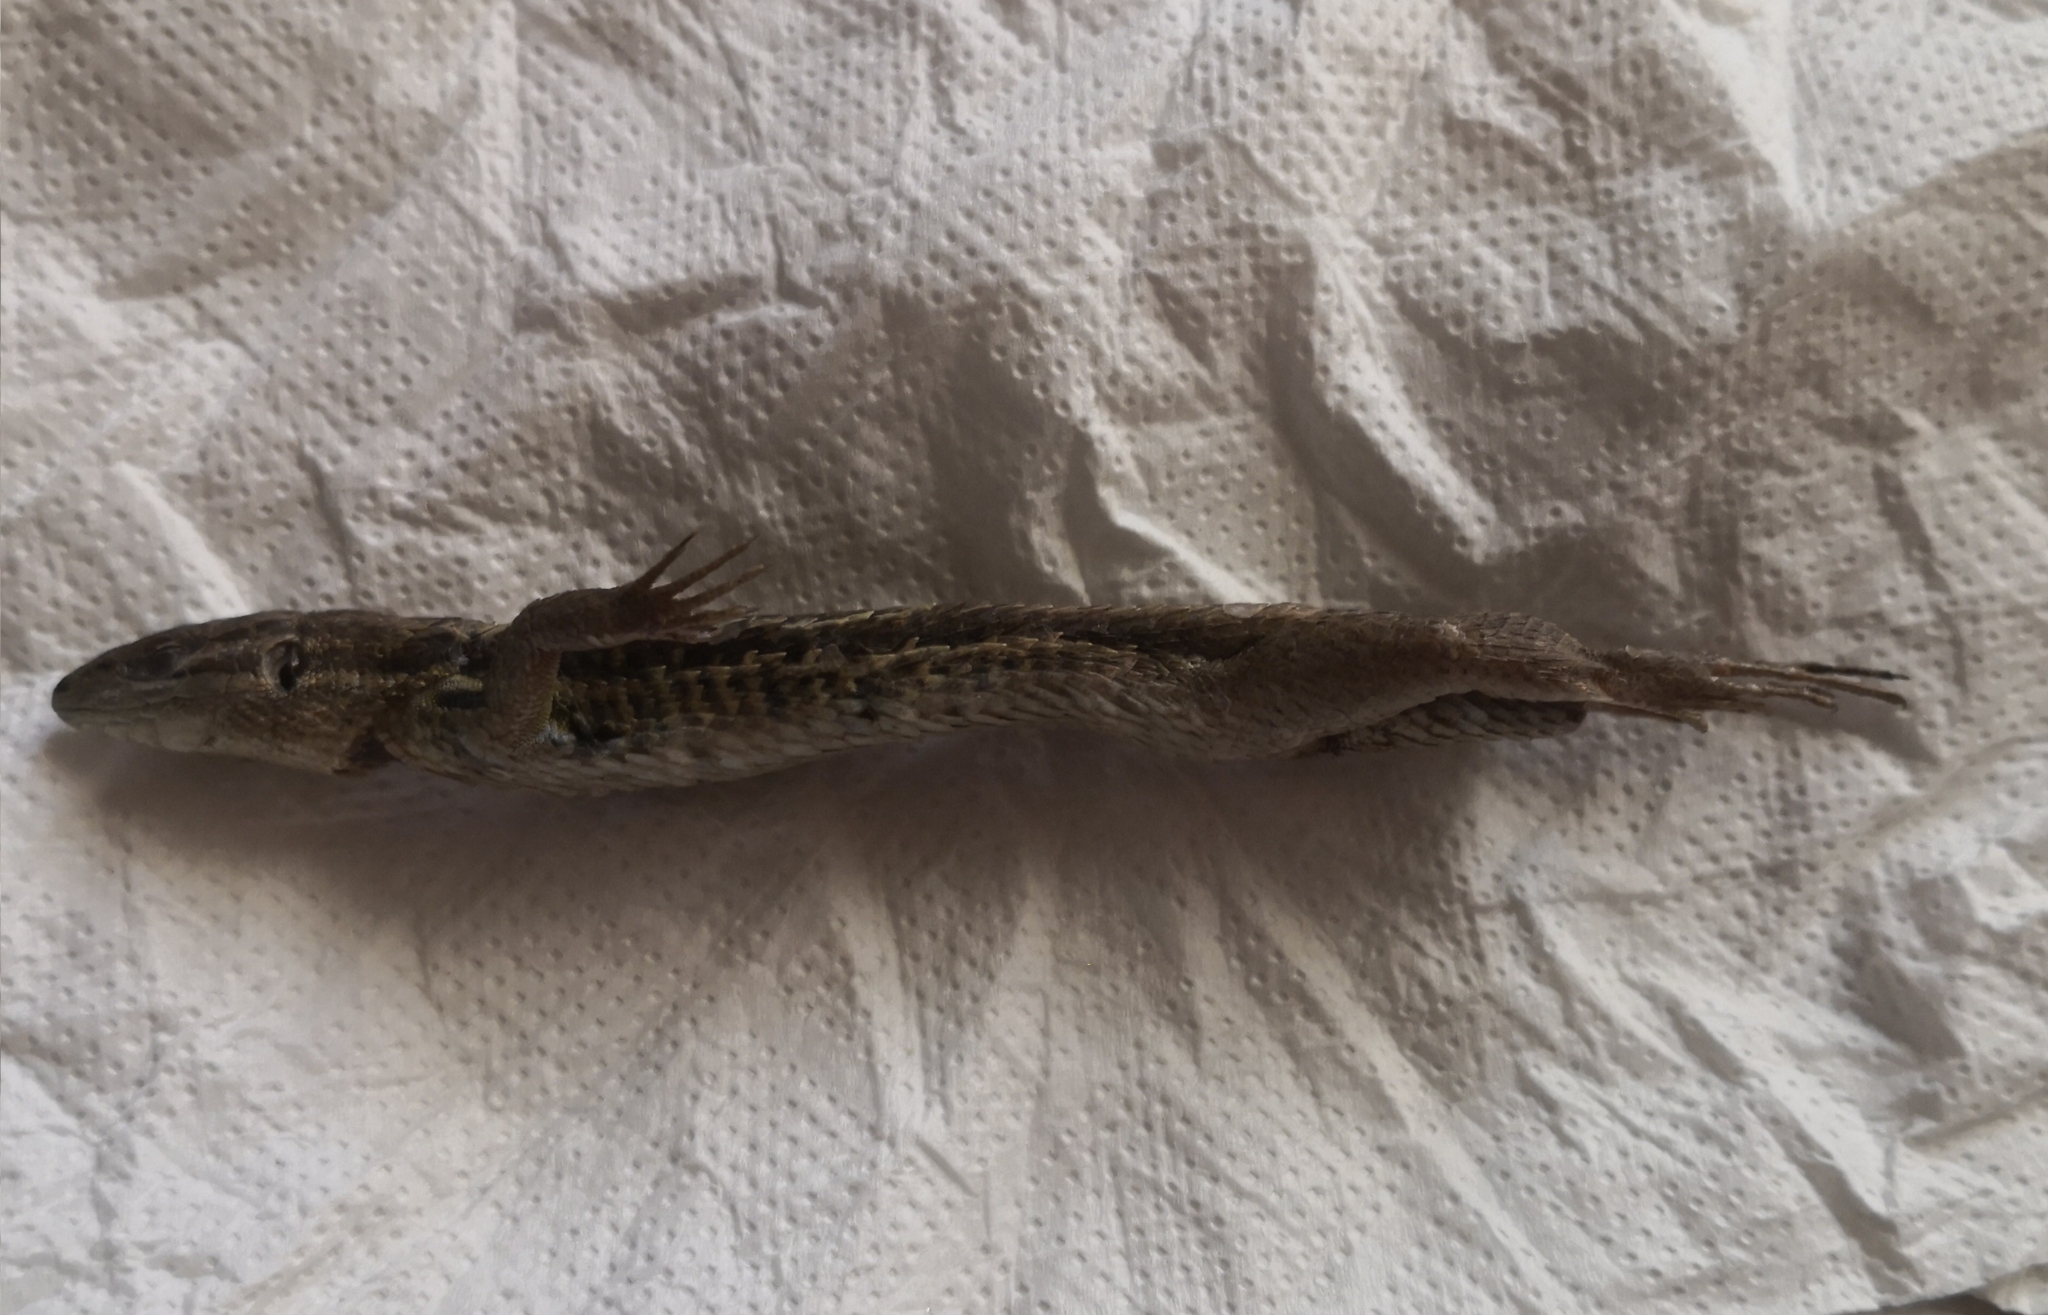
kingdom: Animalia
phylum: Chordata
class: Squamata
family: Lacertidae
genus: Psammodromus
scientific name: Psammodromus algirus
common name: Algerian psammodromus
